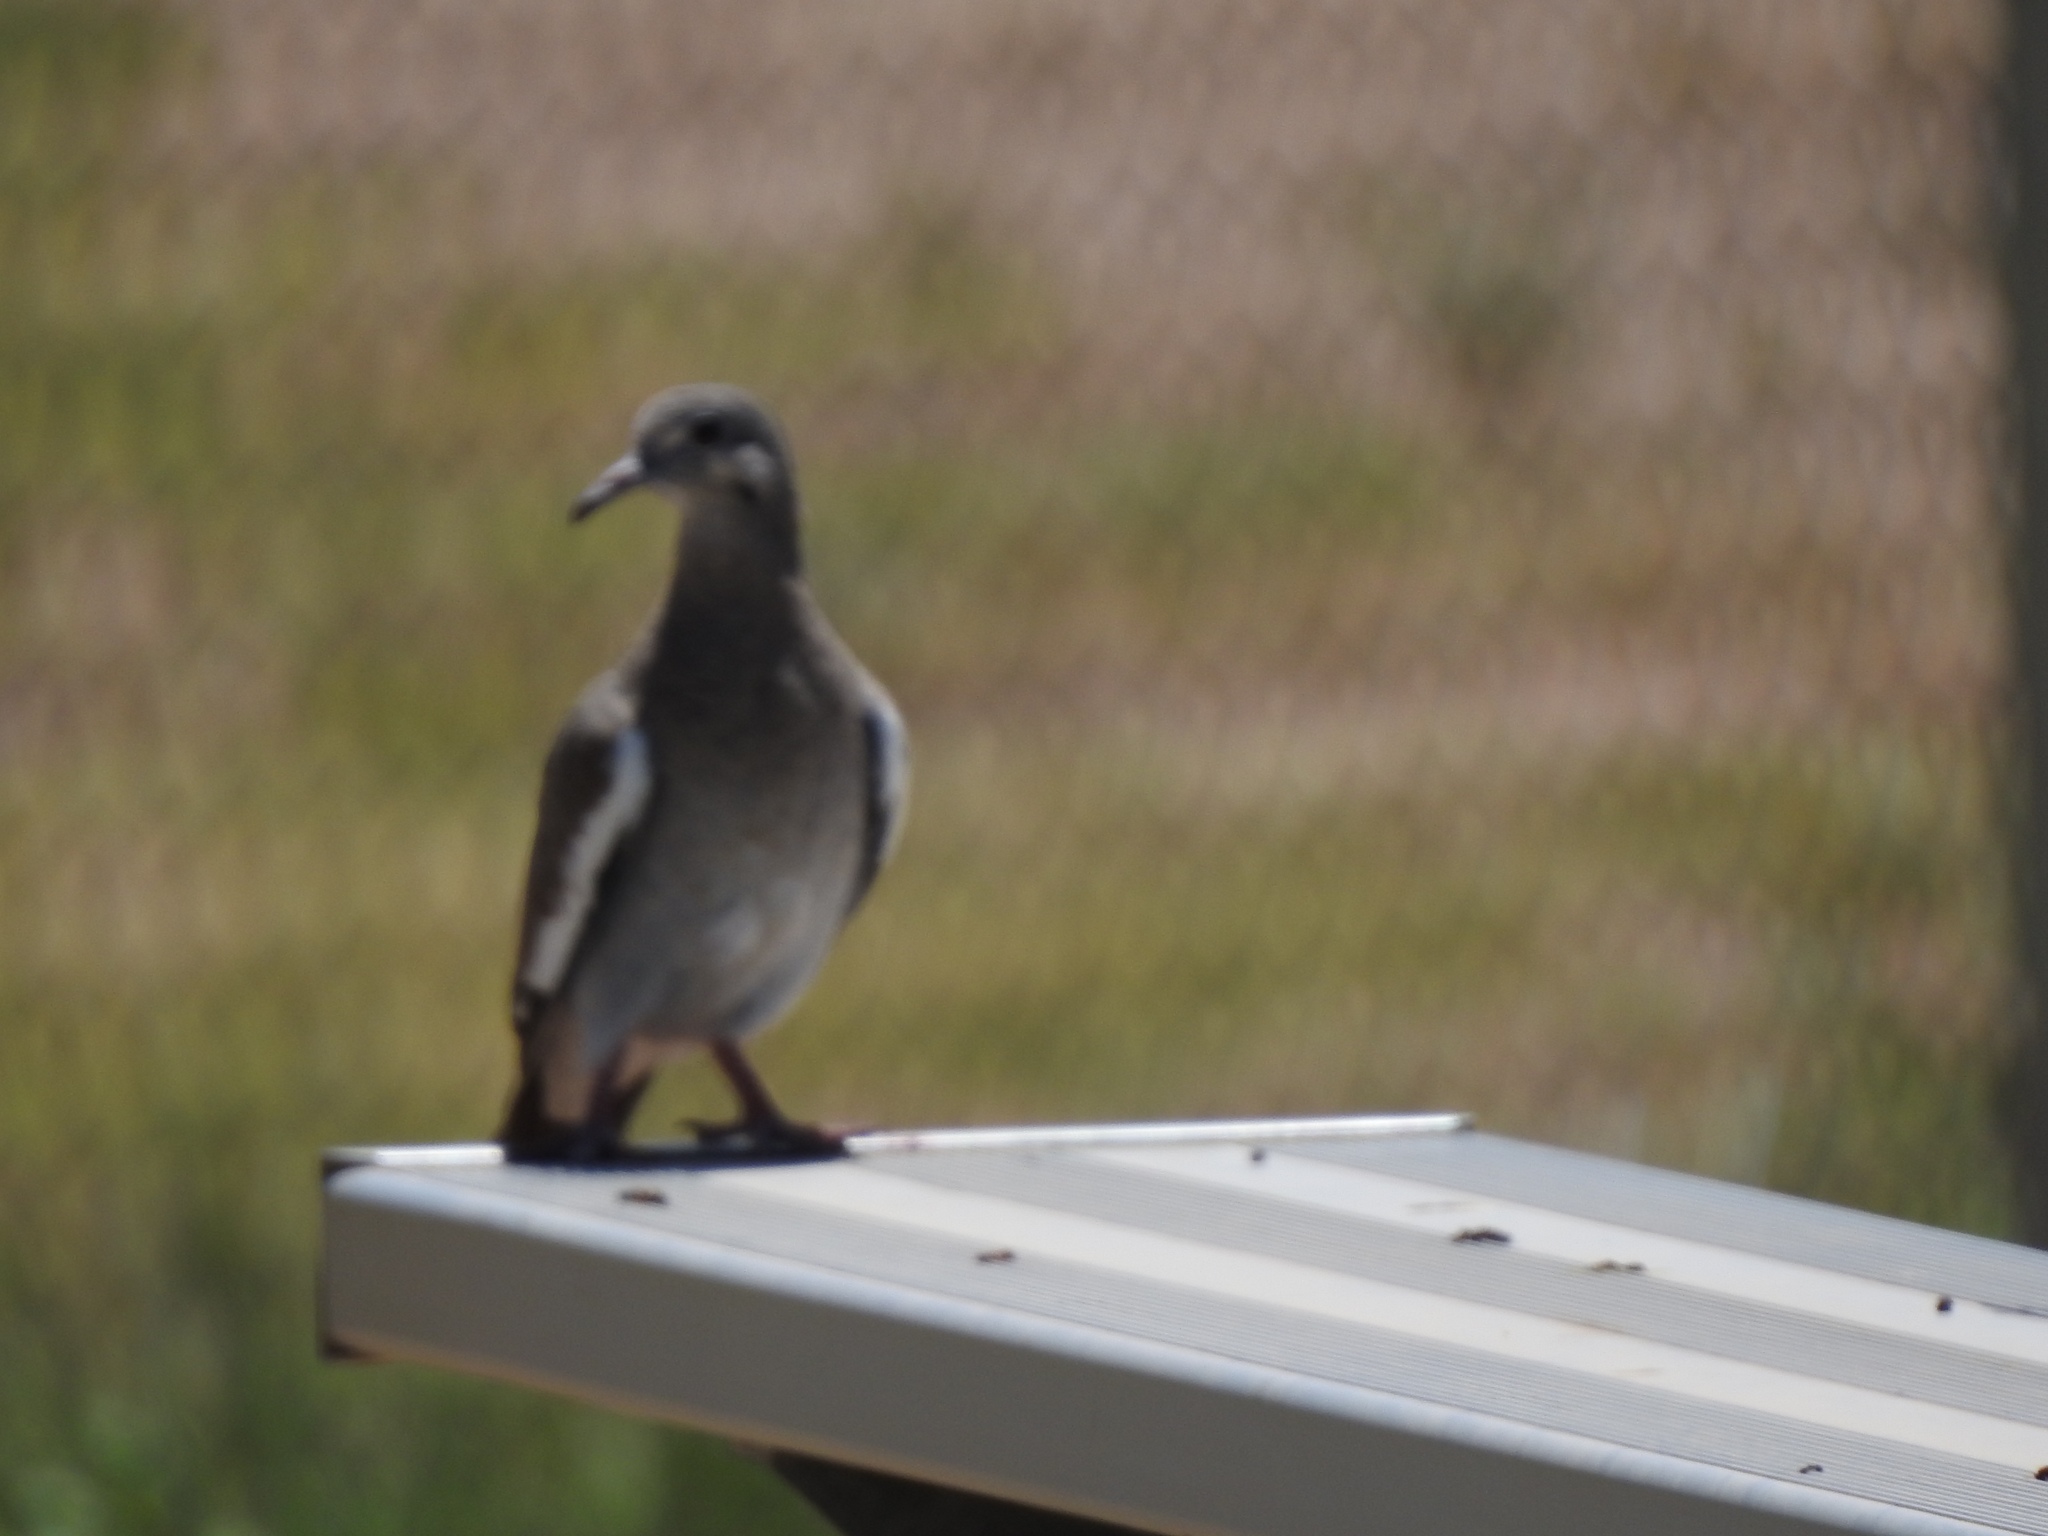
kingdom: Animalia
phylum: Chordata
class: Aves
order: Columbiformes
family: Columbidae
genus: Zenaida
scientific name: Zenaida asiatica
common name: White-winged dove
